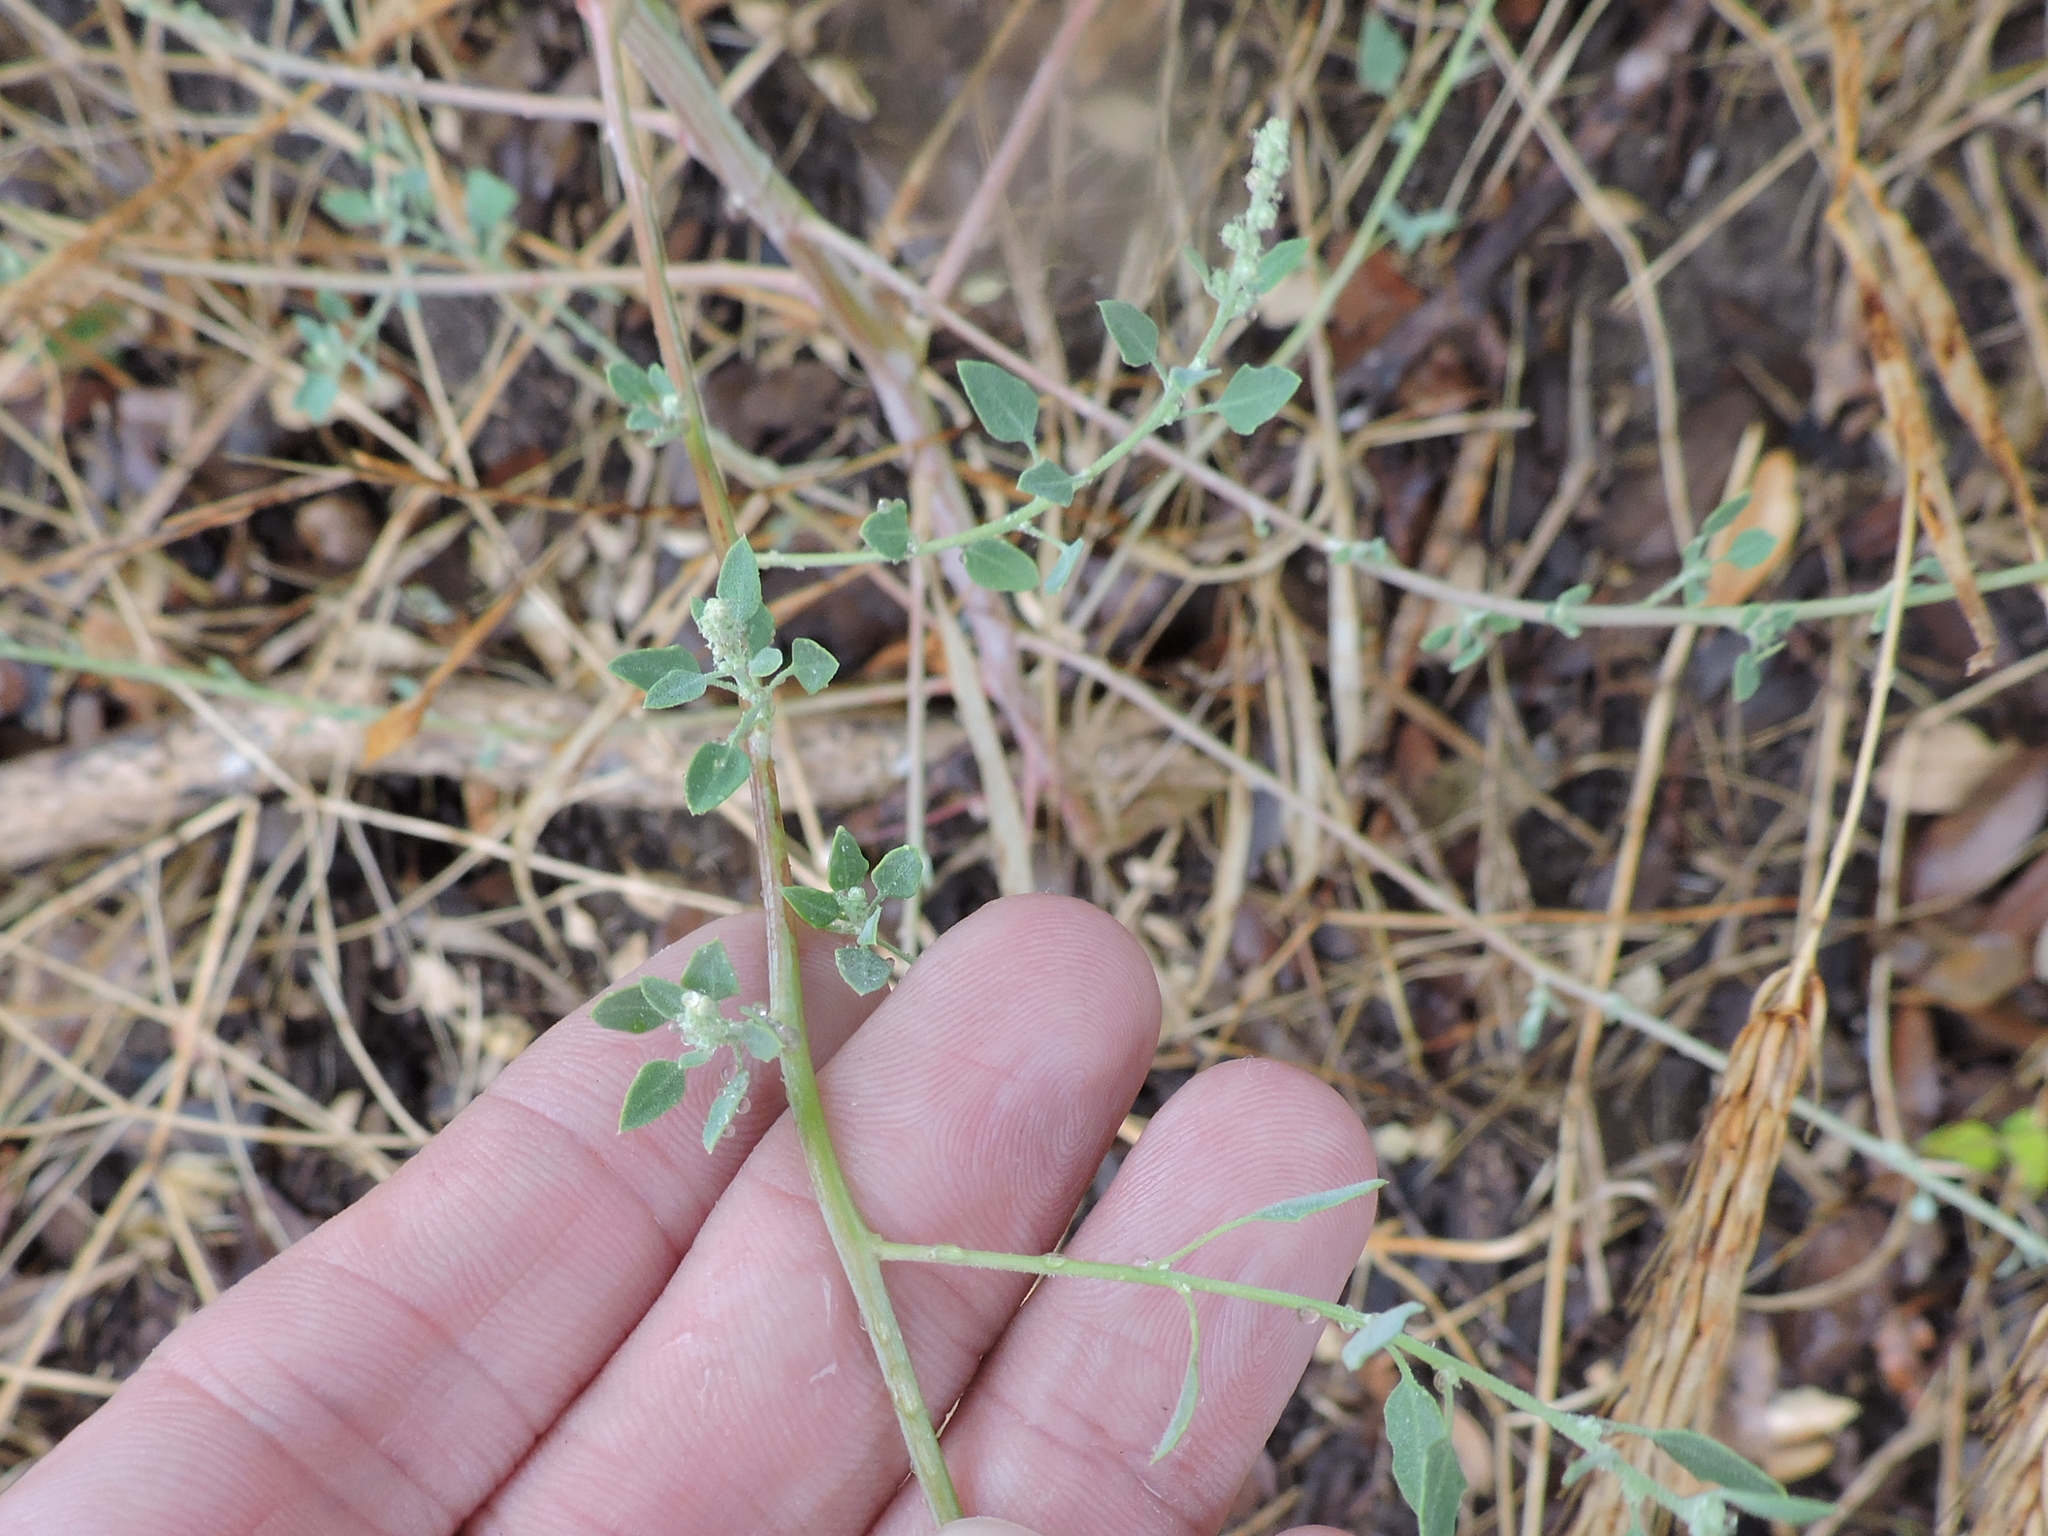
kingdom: Plantae
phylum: Tracheophyta
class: Magnoliopsida
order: Caryophyllales
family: Amaranthaceae
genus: Chenopodium
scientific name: Chenopodium album
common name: Fat-hen
